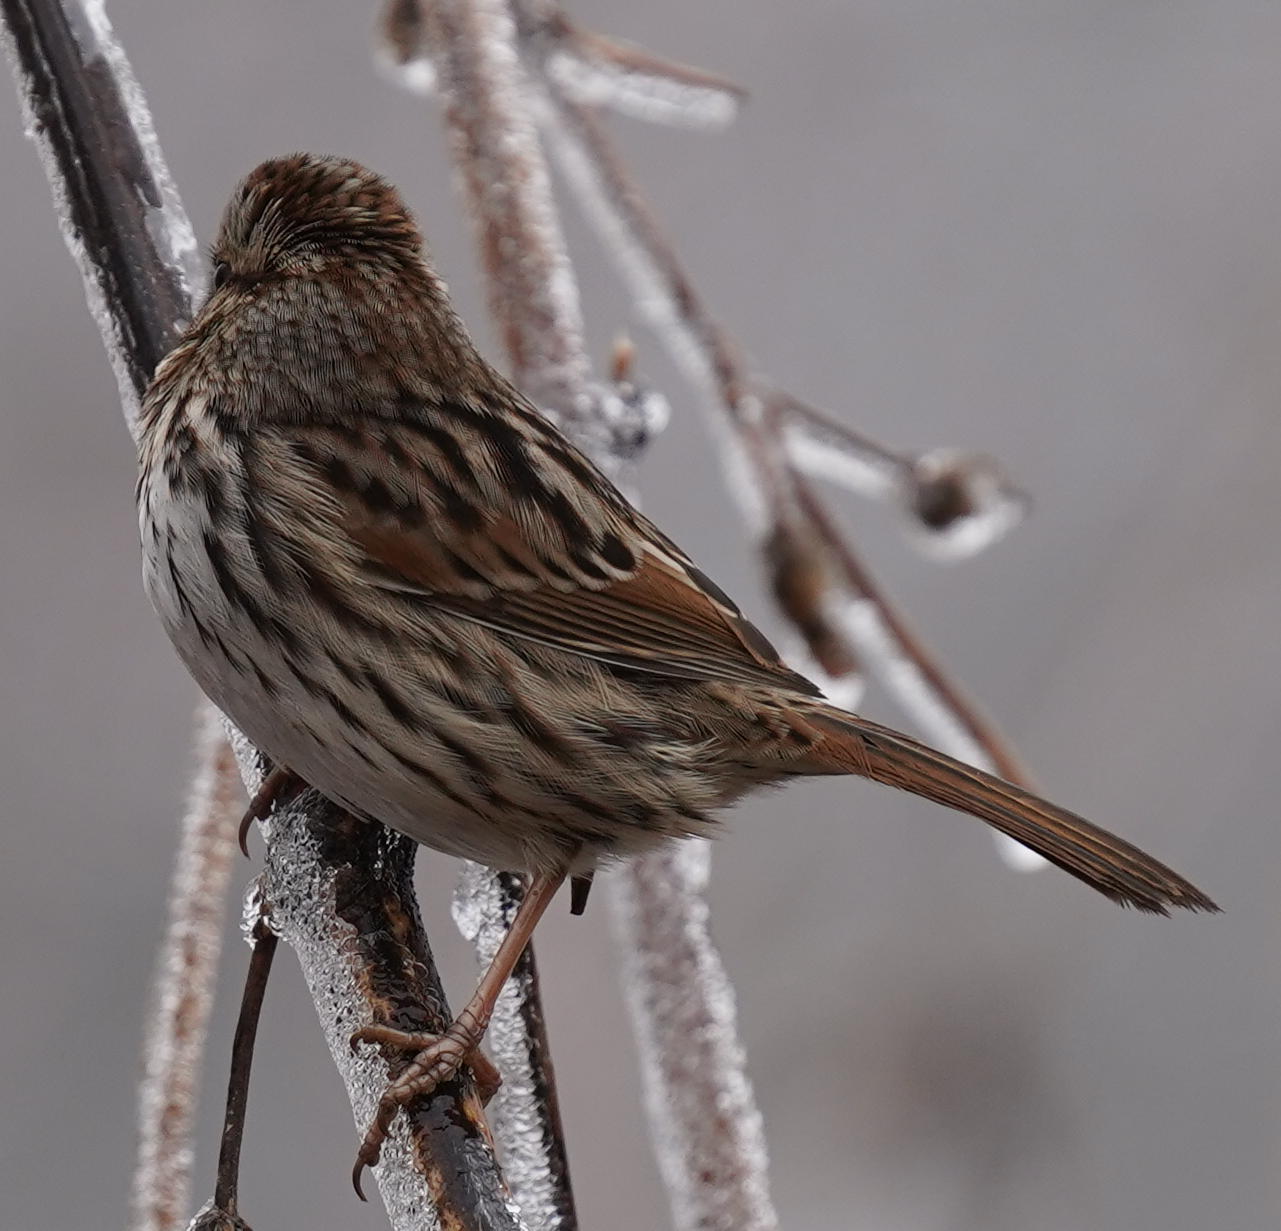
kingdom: Animalia
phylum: Chordata
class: Aves
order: Passeriformes
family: Passerellidae
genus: Melospiza
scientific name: Melospiza melodia
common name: Song sparrow
